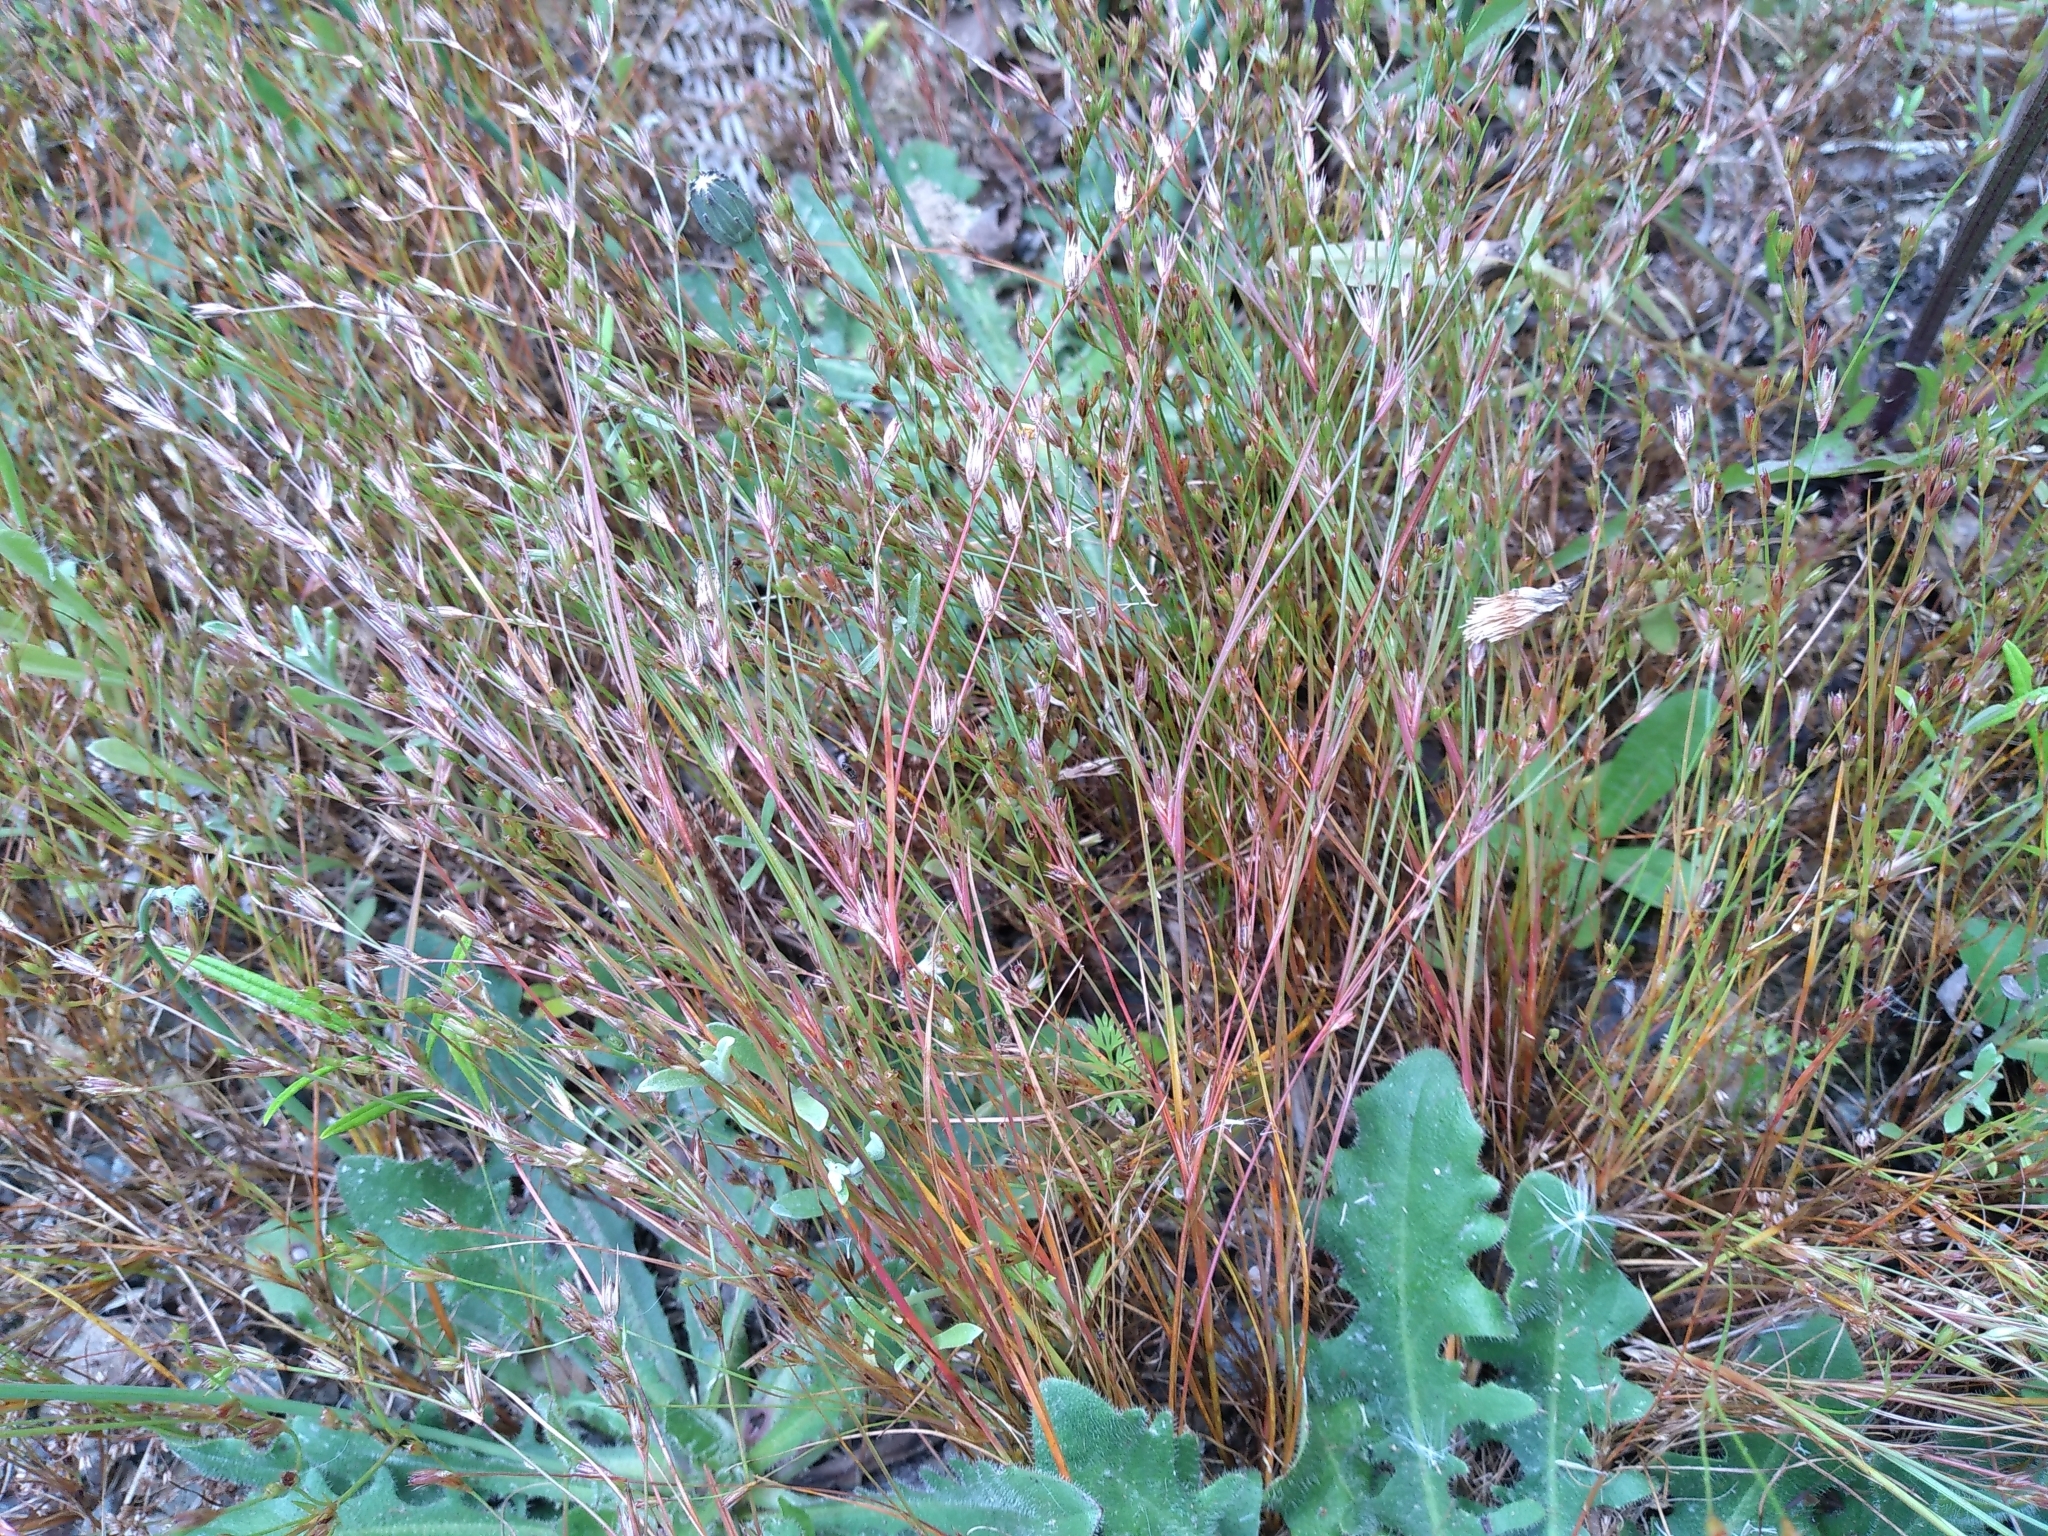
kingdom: Plantae
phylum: Tracheophyta
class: Liliopsida
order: Poales
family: Juncaceae
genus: Juncus
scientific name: Juncus bufonius
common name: Toad rush
